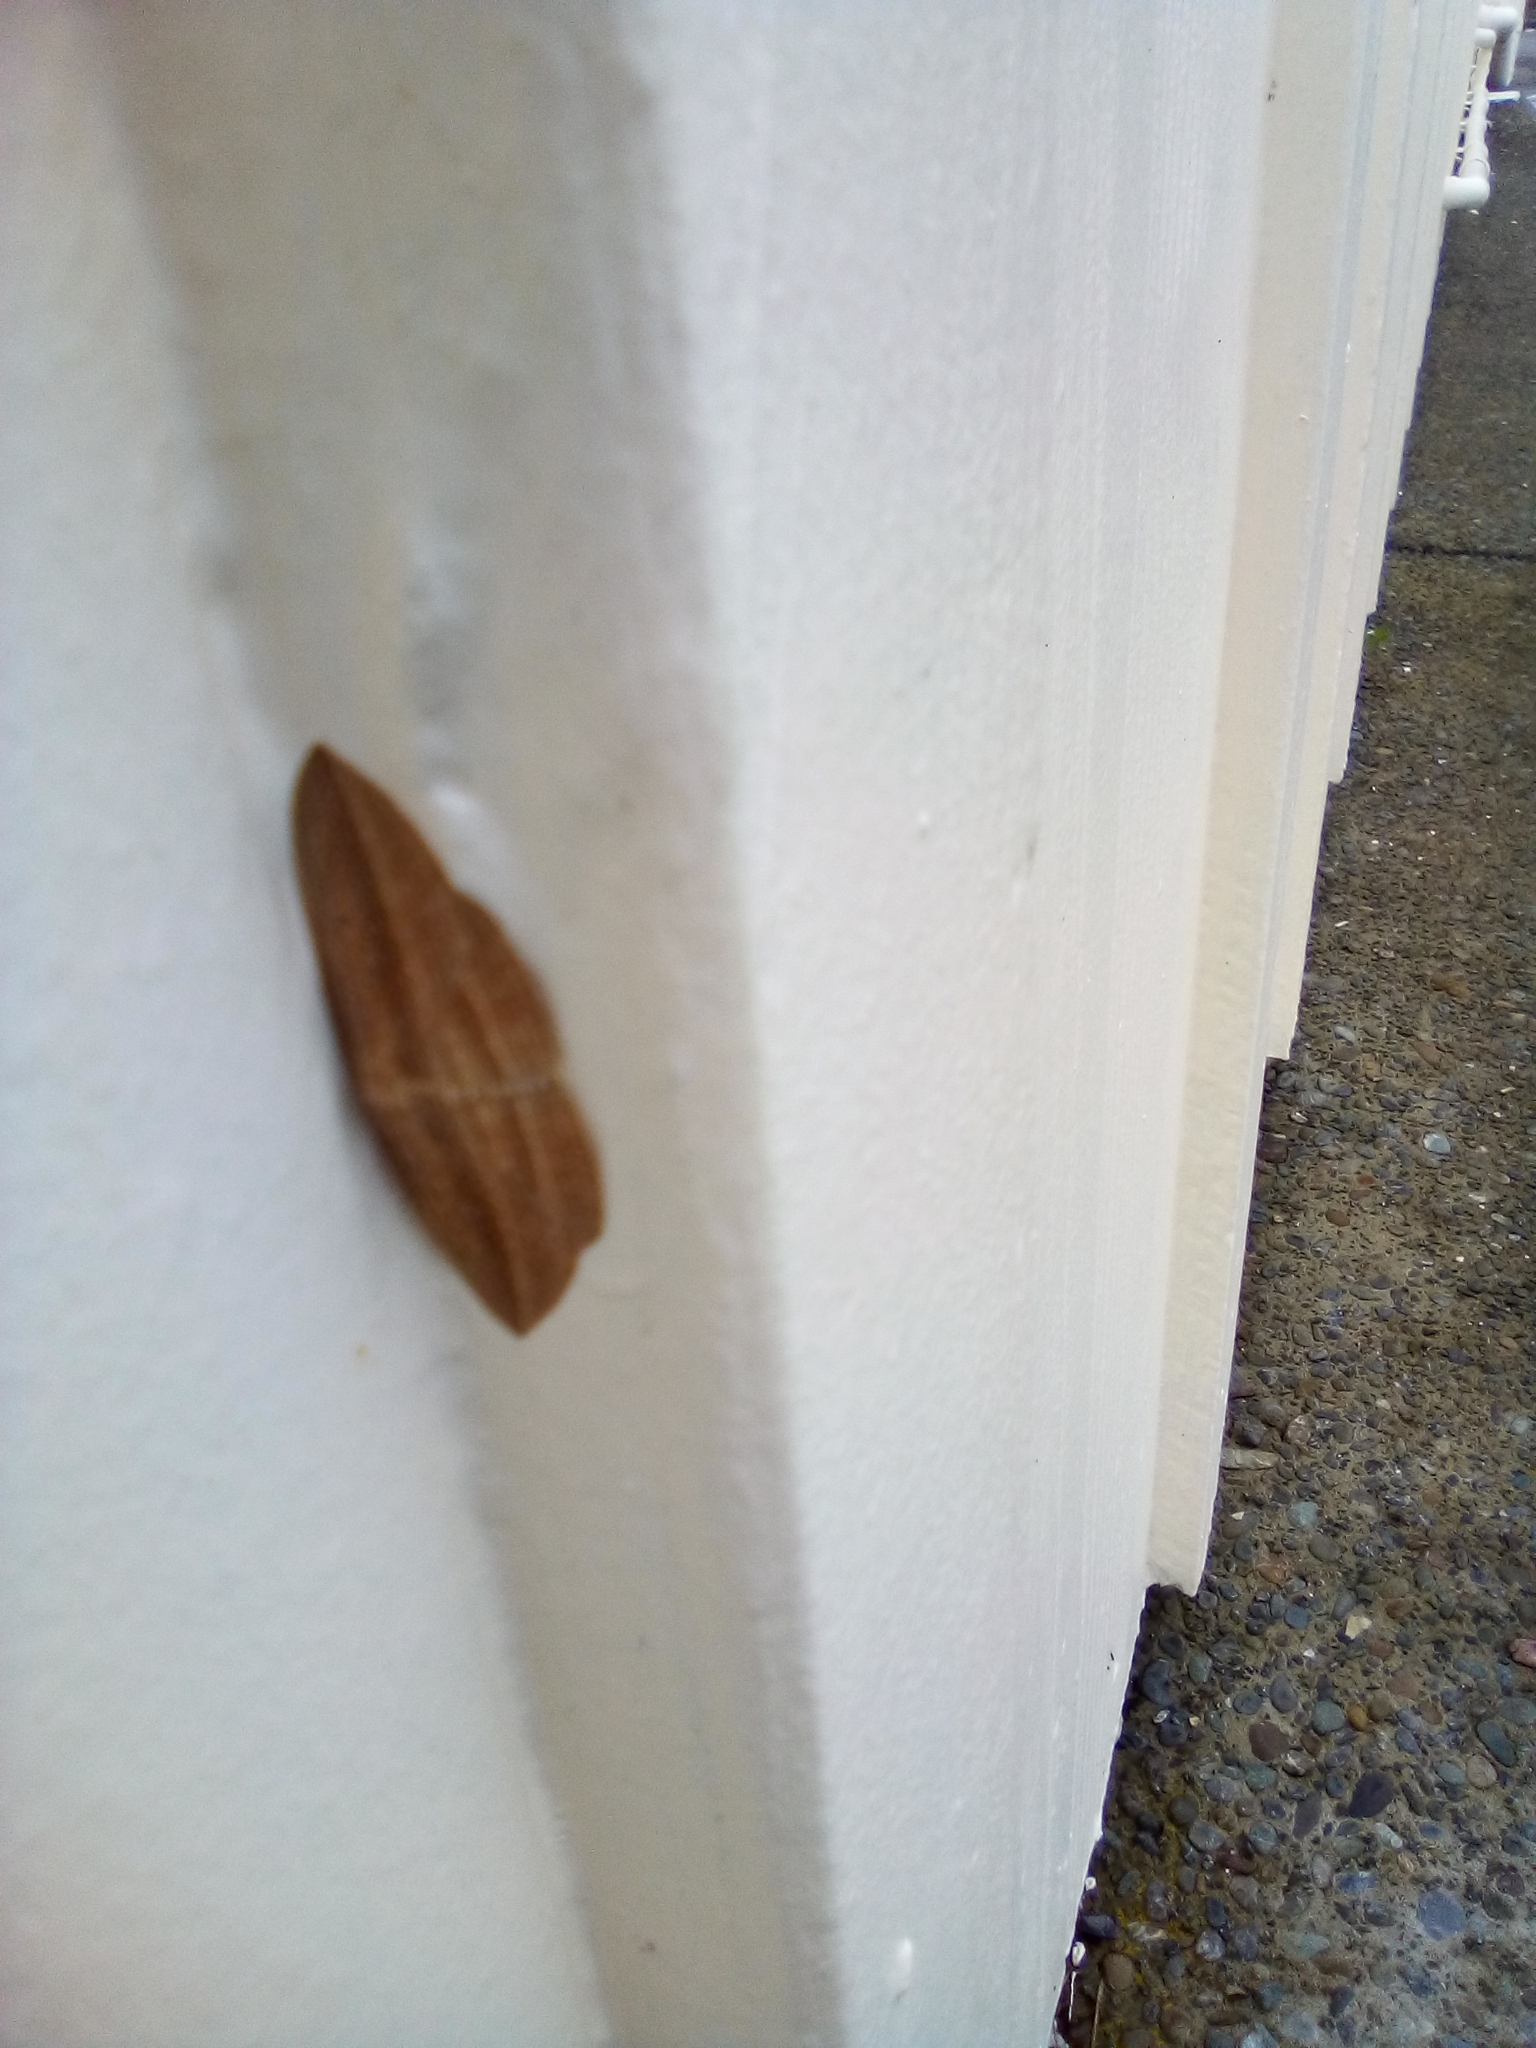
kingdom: Animalia
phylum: Arthropoda
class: Insecta
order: Lepidoptera
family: Geometridae
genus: Epiphryne
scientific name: Epiphryne verriculata
